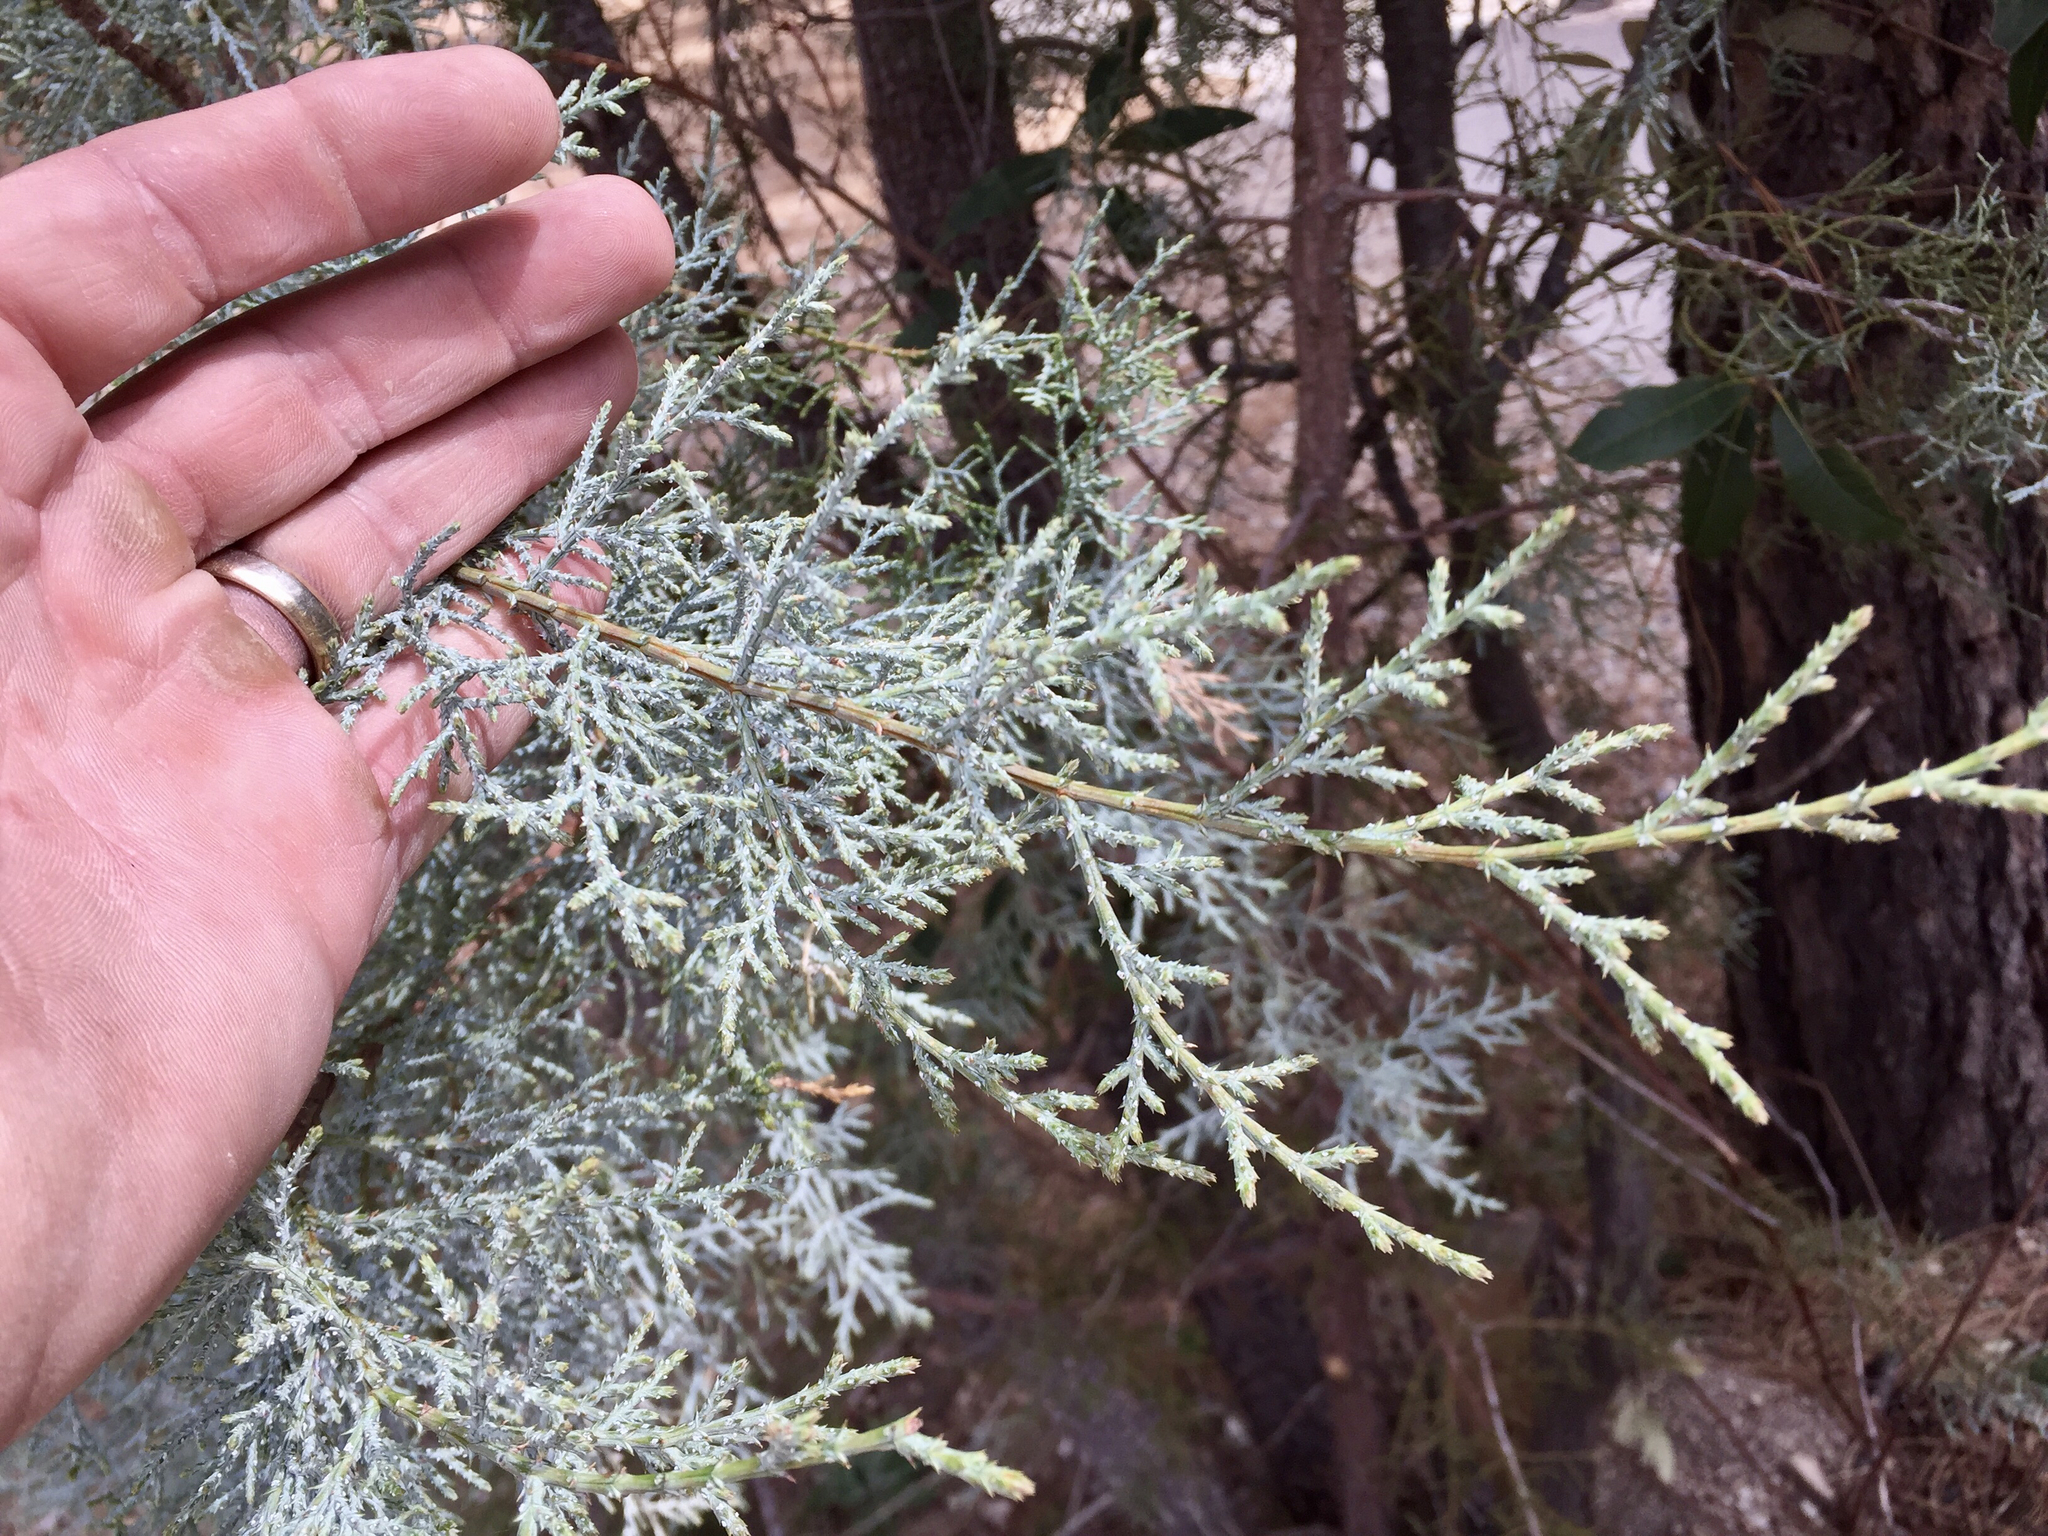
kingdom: Plantae
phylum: Tracheophyta
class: Pinopsida
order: Pinales
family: Cupressaceae
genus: Juniperus
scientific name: Juniperus deppeana
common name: Alligator juniper
